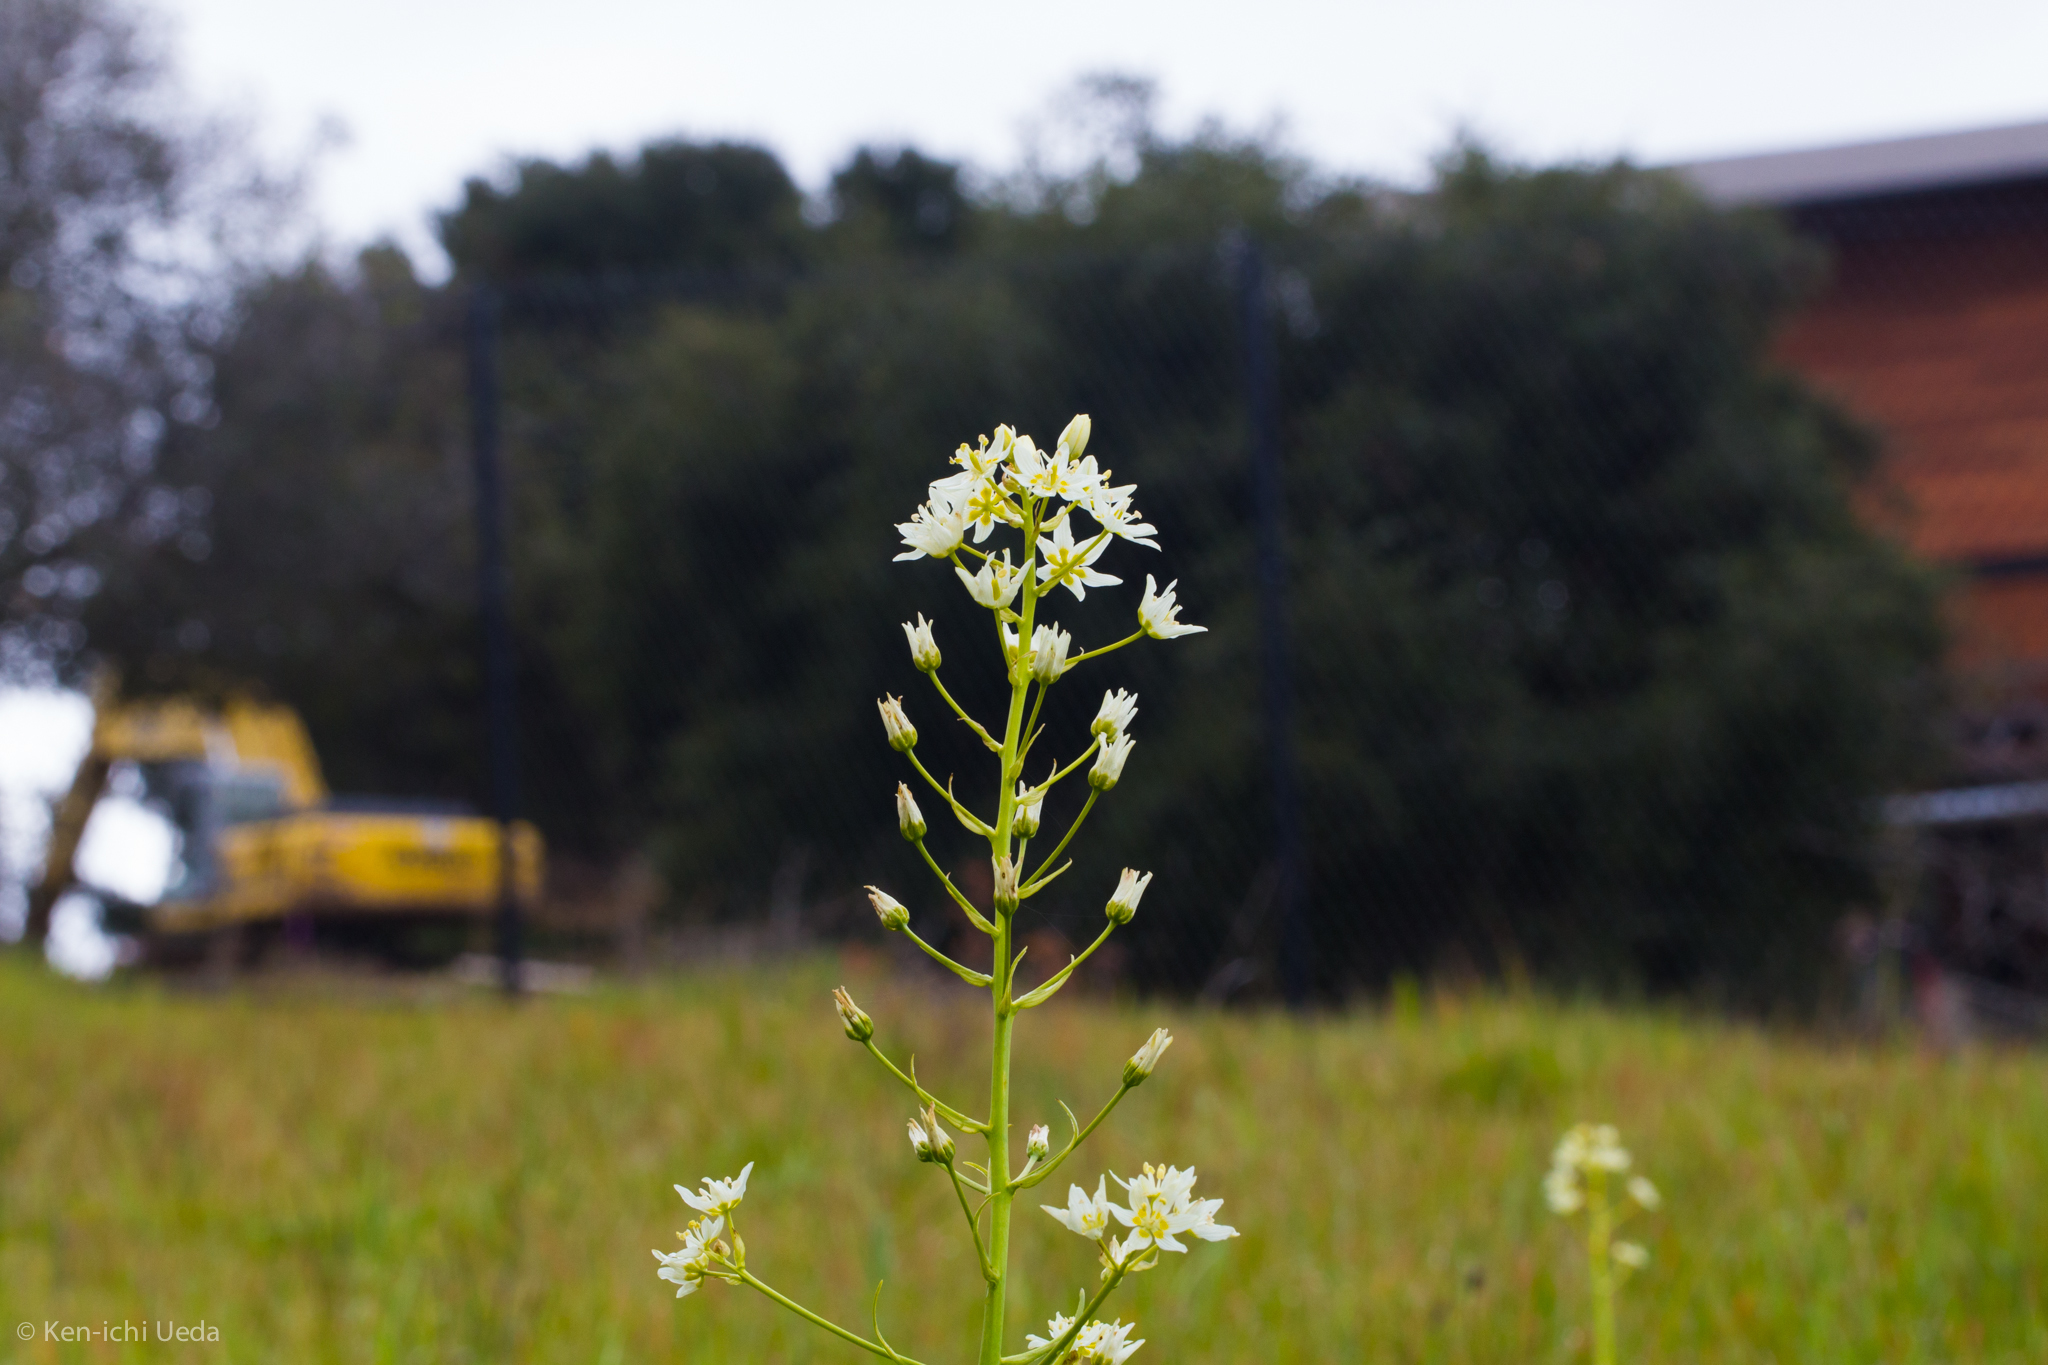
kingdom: Plantae
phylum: Tracheophyta
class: Liliopsida
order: Liliales
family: Melanthiaceae
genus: Toxicoscordion
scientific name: Toxicoscordion fremontii
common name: Fremont's death camas
